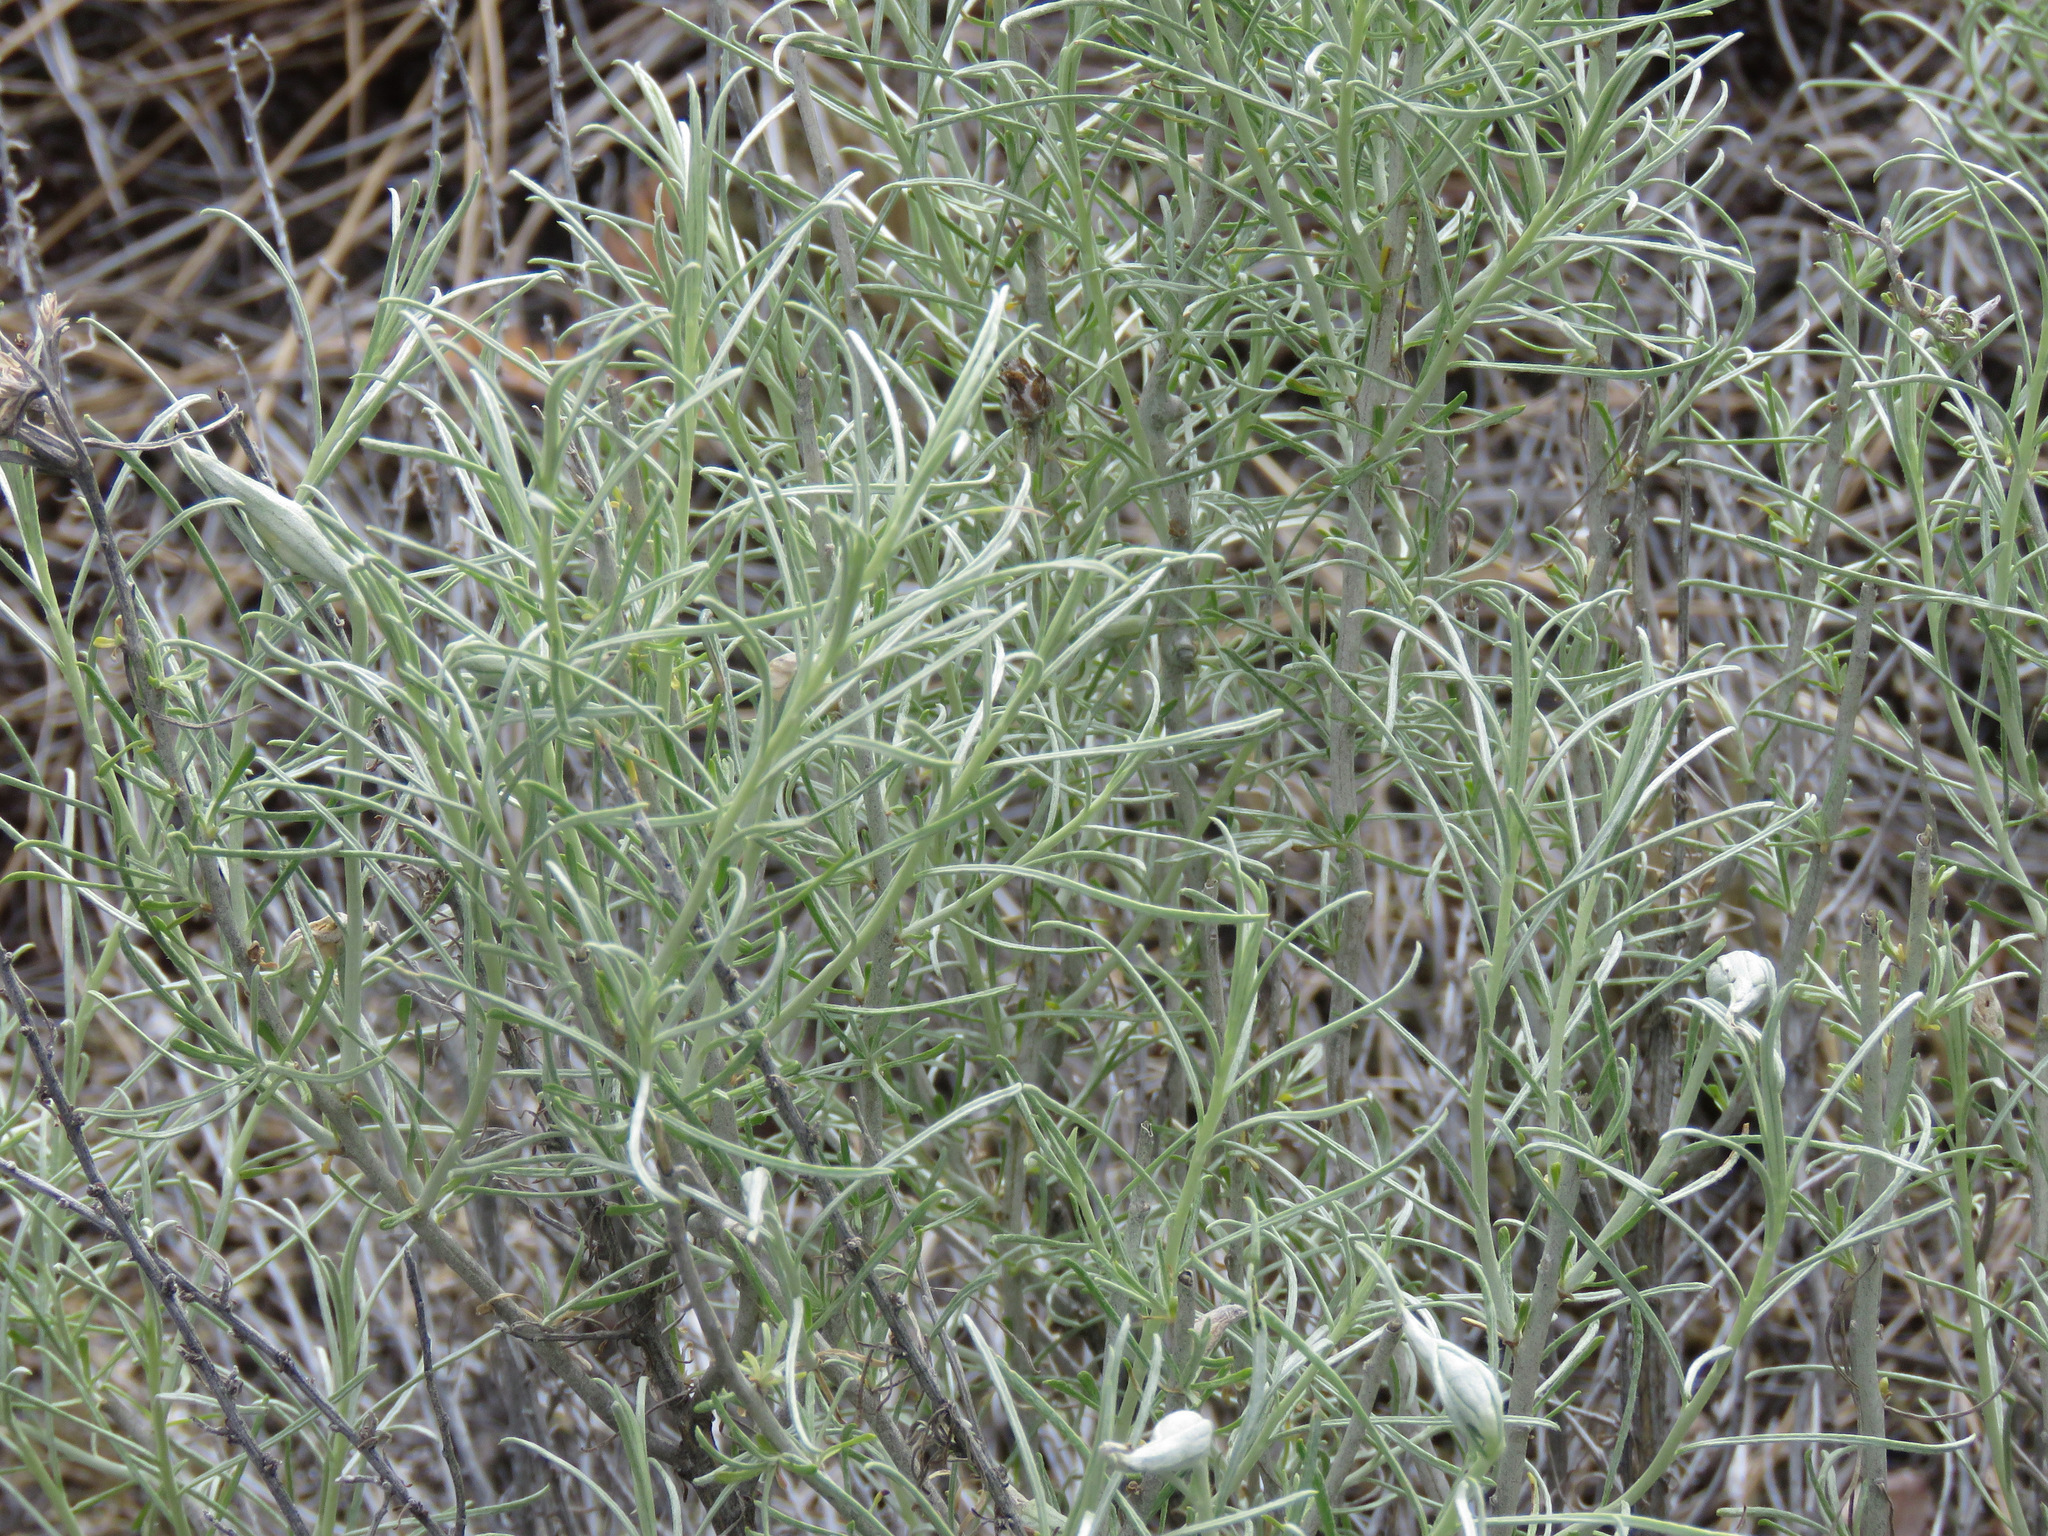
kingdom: Plantae
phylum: Tracheophyta
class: Magnoliopsida
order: Asterales
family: Asteraceae
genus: Ericameria
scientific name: Ericameria nauseosa
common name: Rubber rabbitbrush
